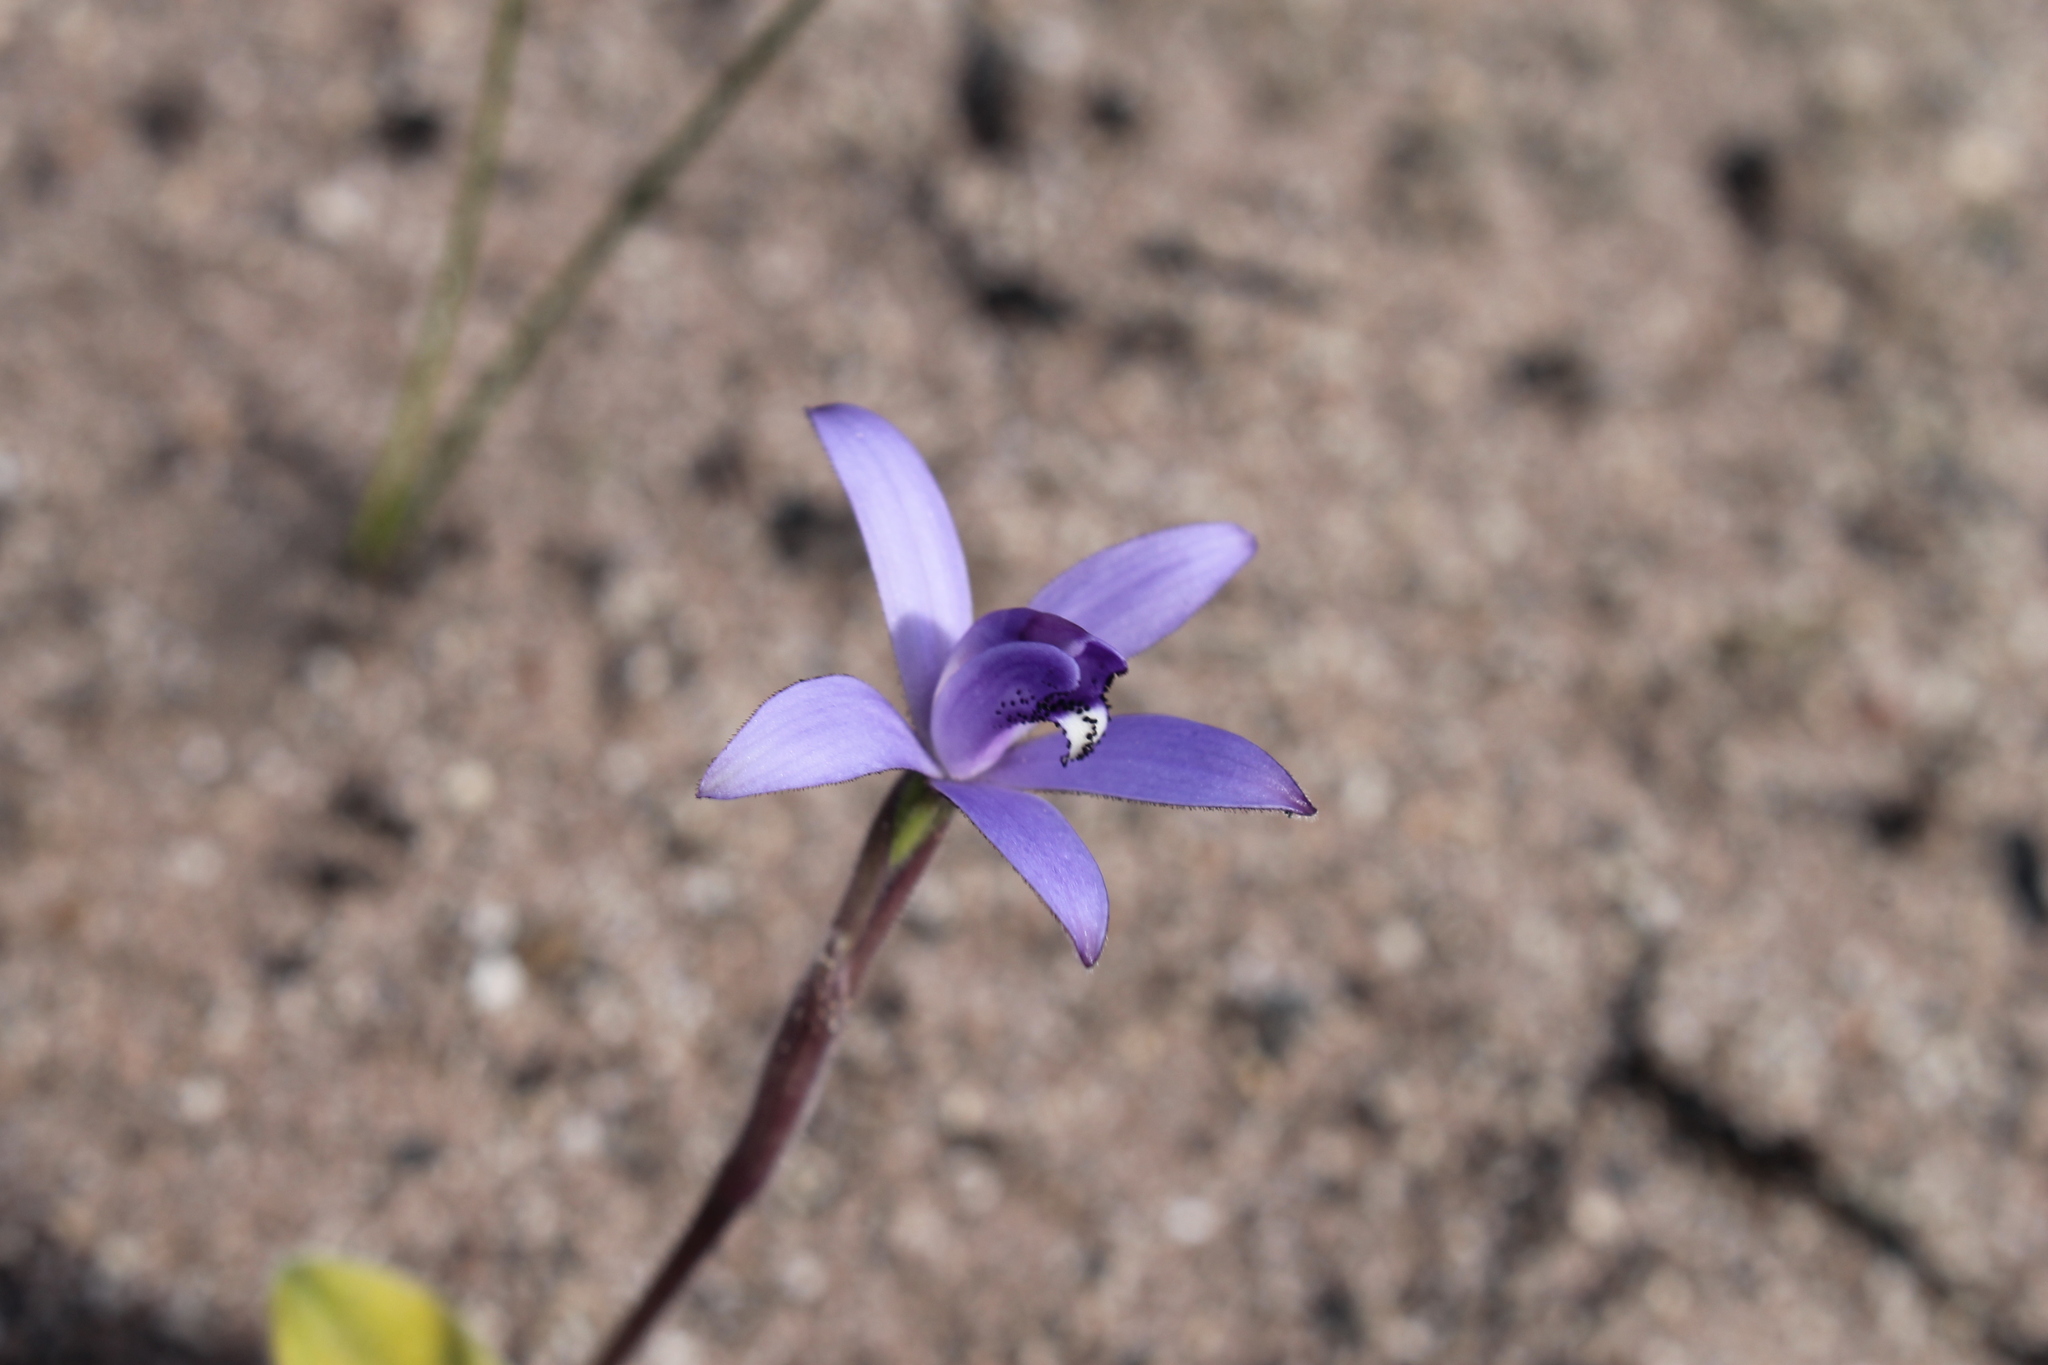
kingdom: Plantae
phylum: Tracheophyta
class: Liliopsida
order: Asparagales
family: Orchidaceae
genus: Caladenia
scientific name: Caladenia sericea
